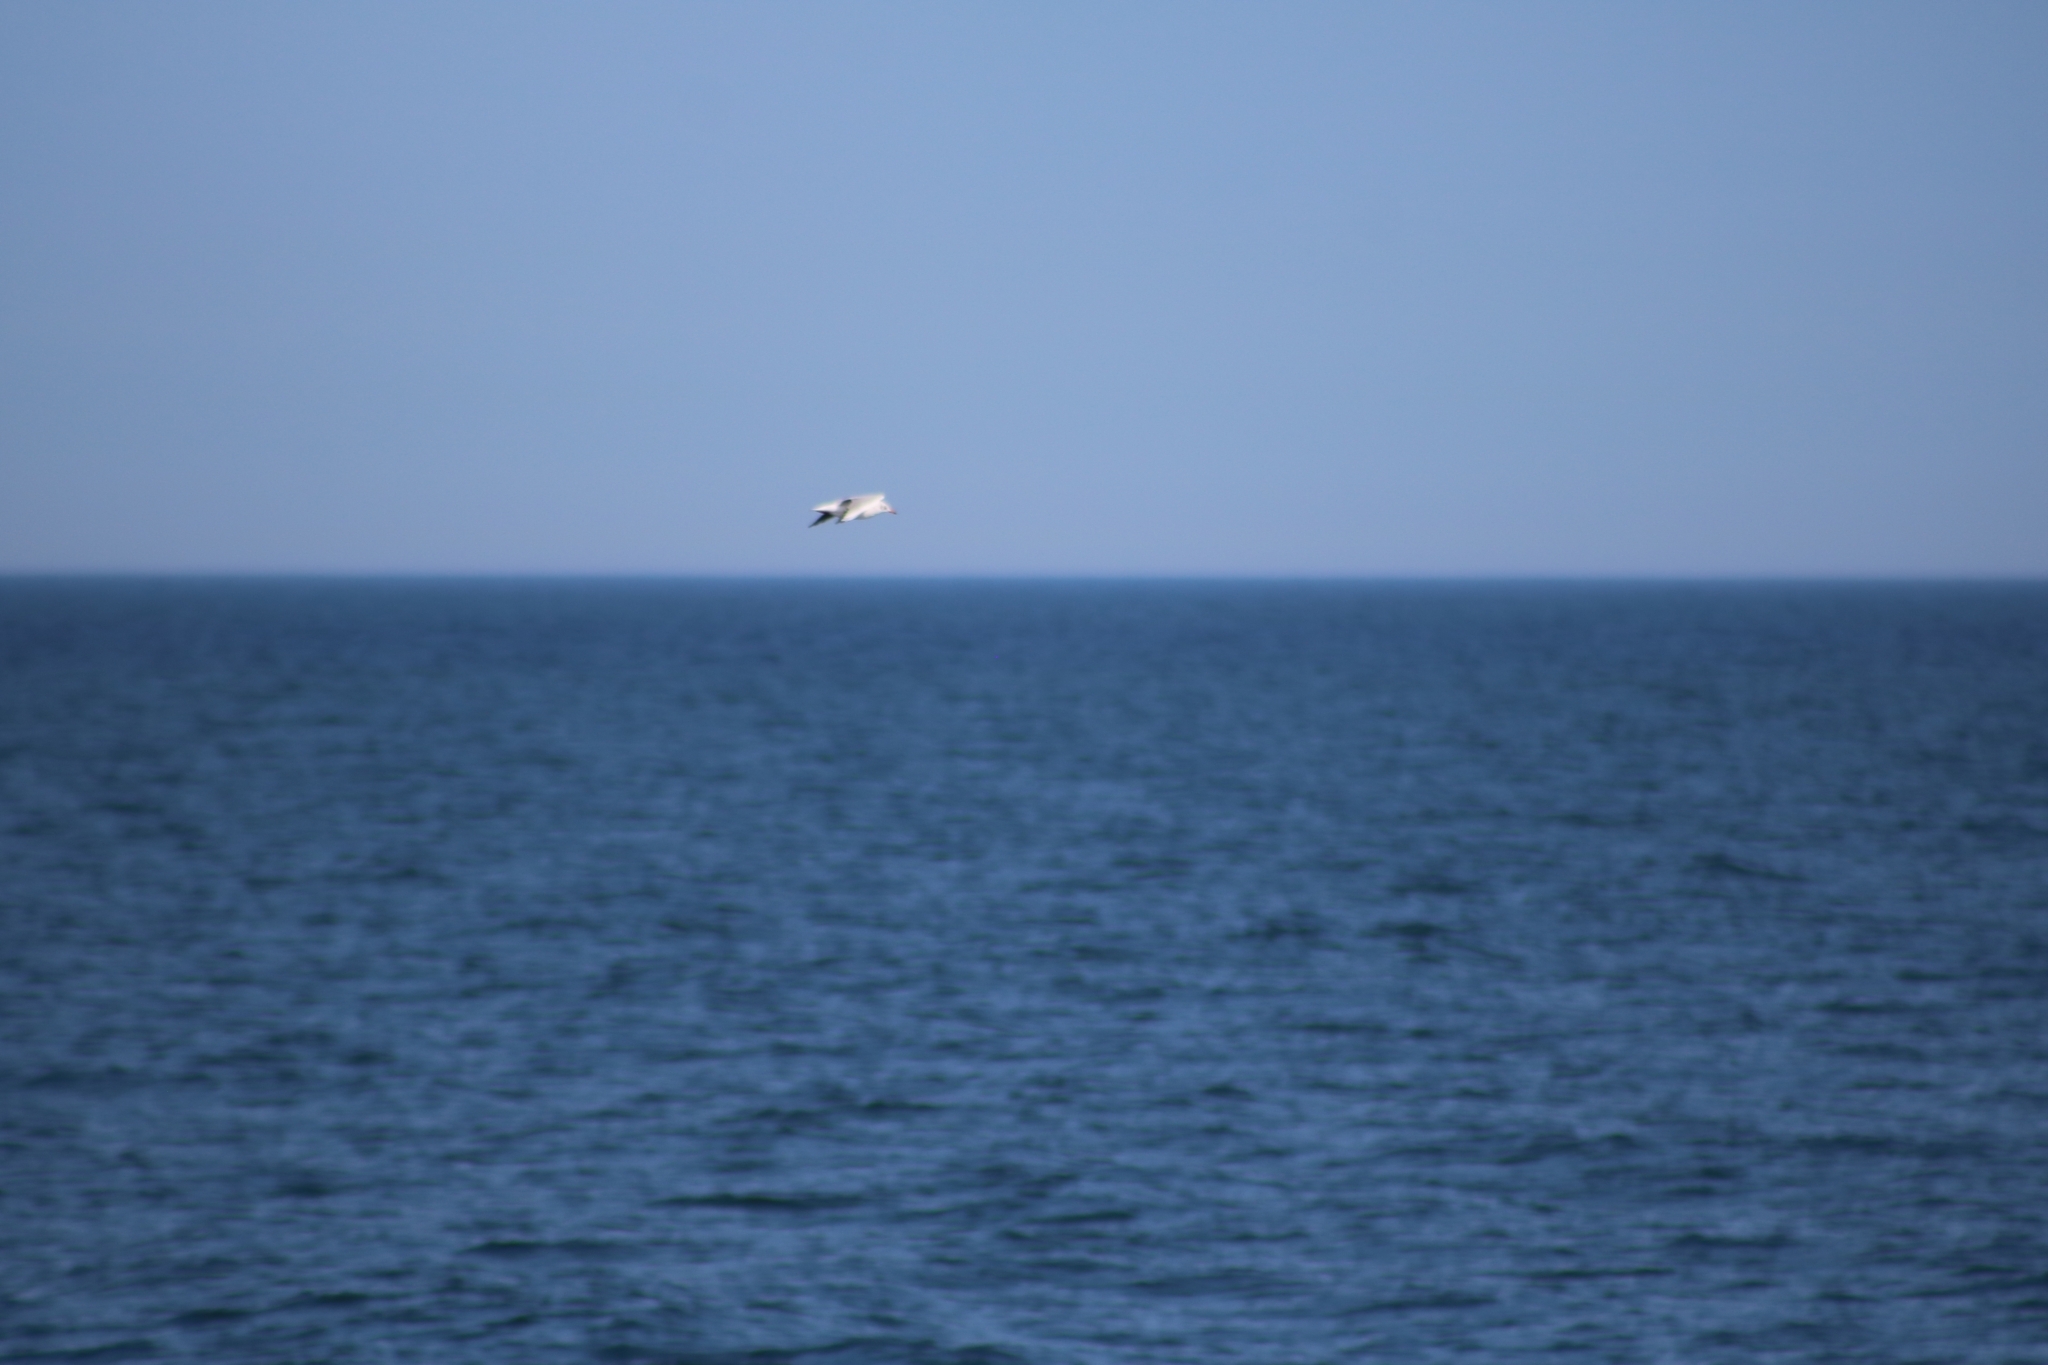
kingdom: Animalia
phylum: Chordata
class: Aves
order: Charadriiformes
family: Laridae
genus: Chroicocephalus
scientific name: Chroicocephalus ridibundus
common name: Black-headed gull
